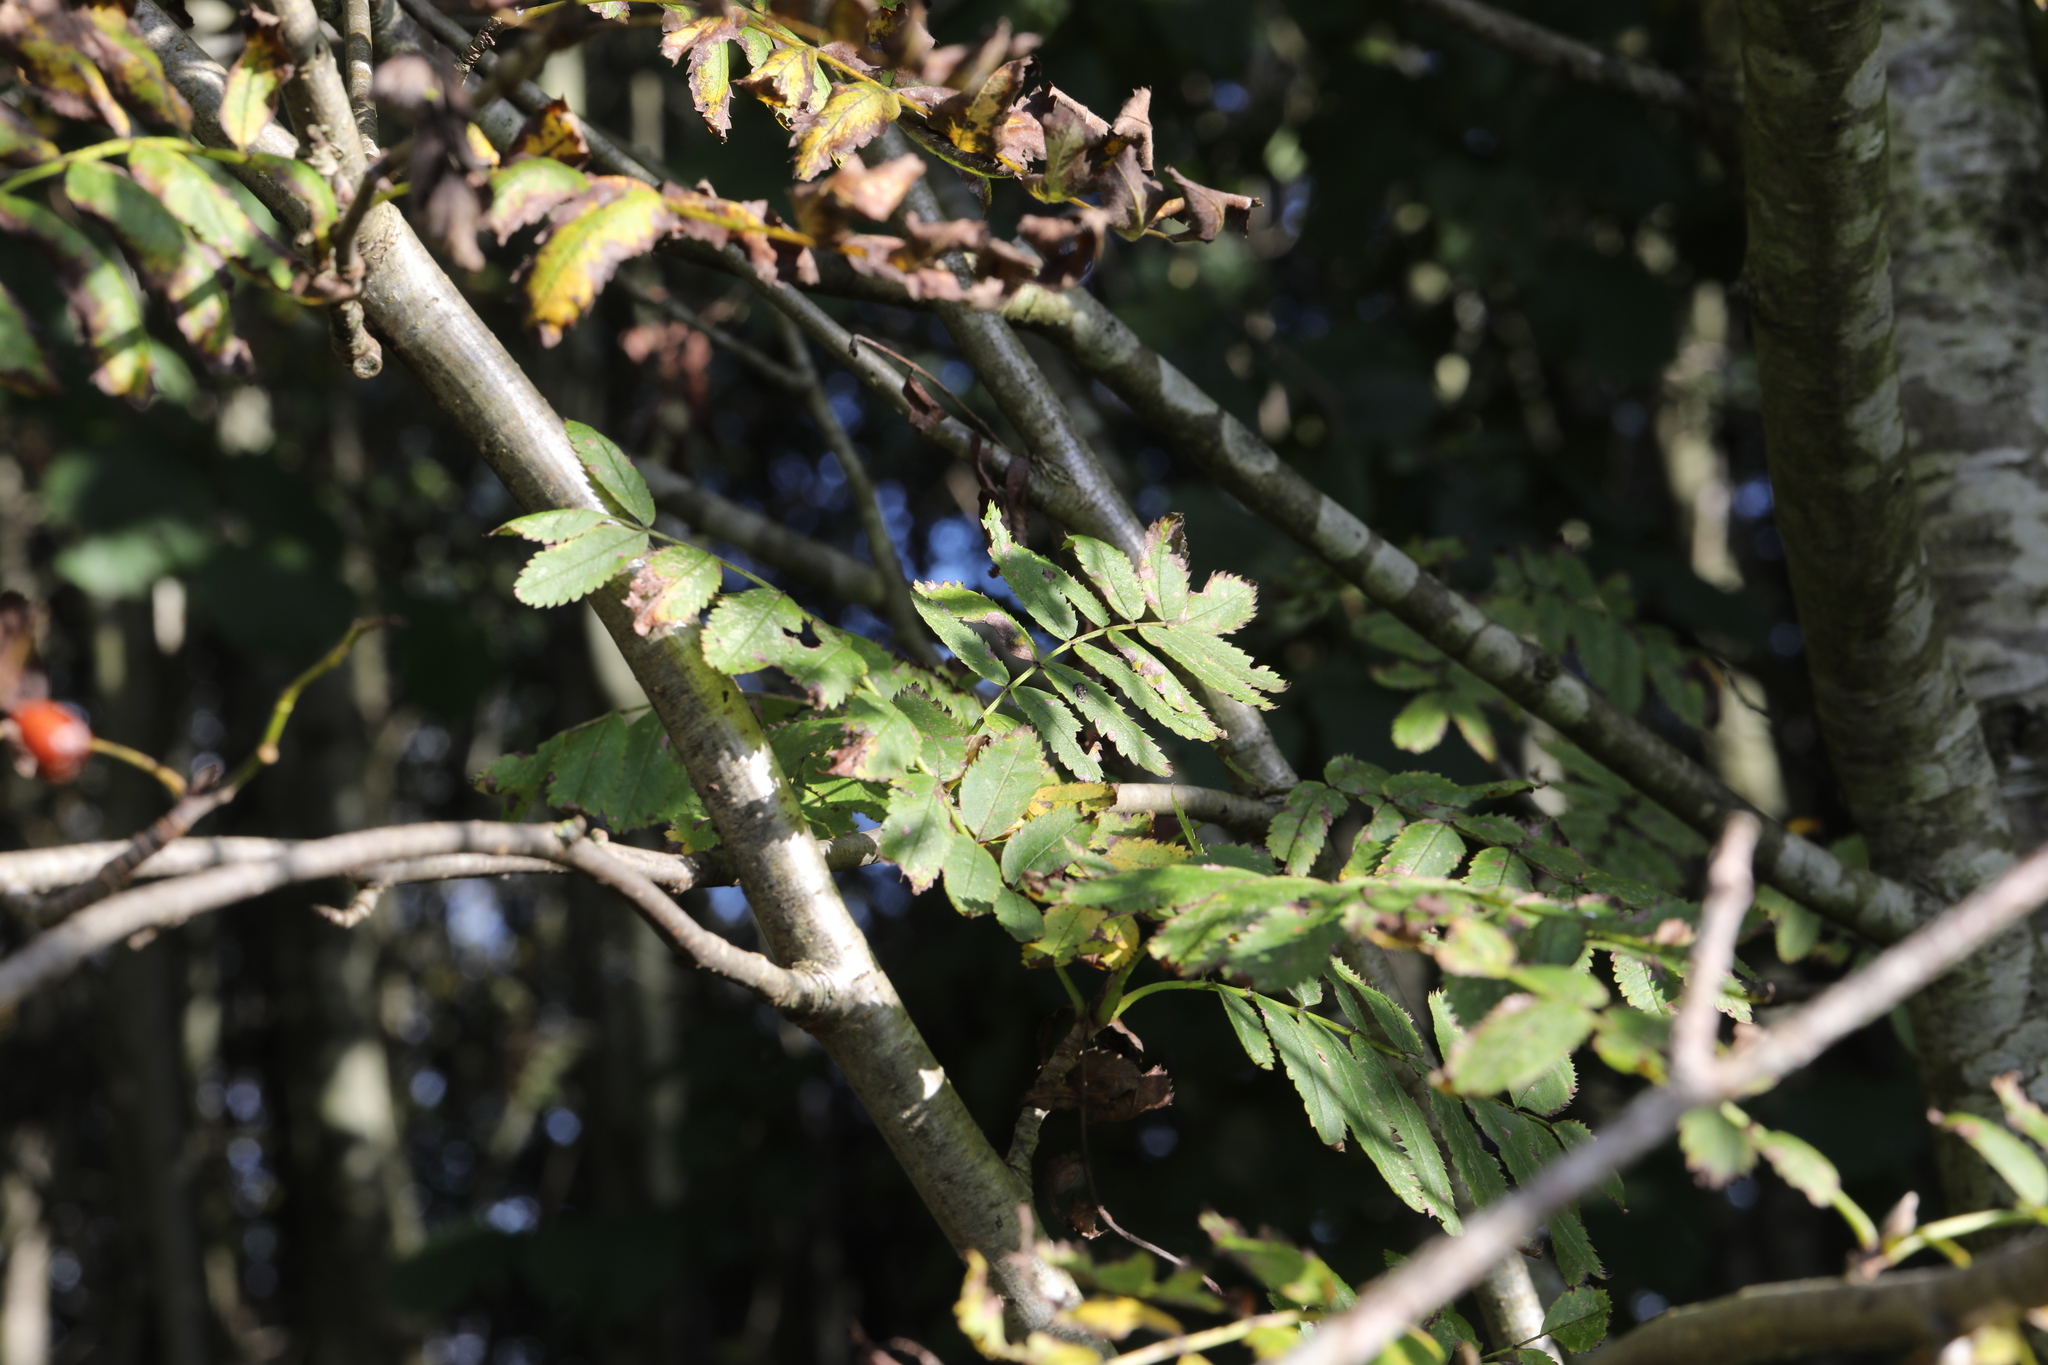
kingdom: Plantae
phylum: Tracheophyta
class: Magnoliopsida
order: Rosales
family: Rosaceae
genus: Sorbus
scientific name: Sorbus aucuparia
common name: Rowan
